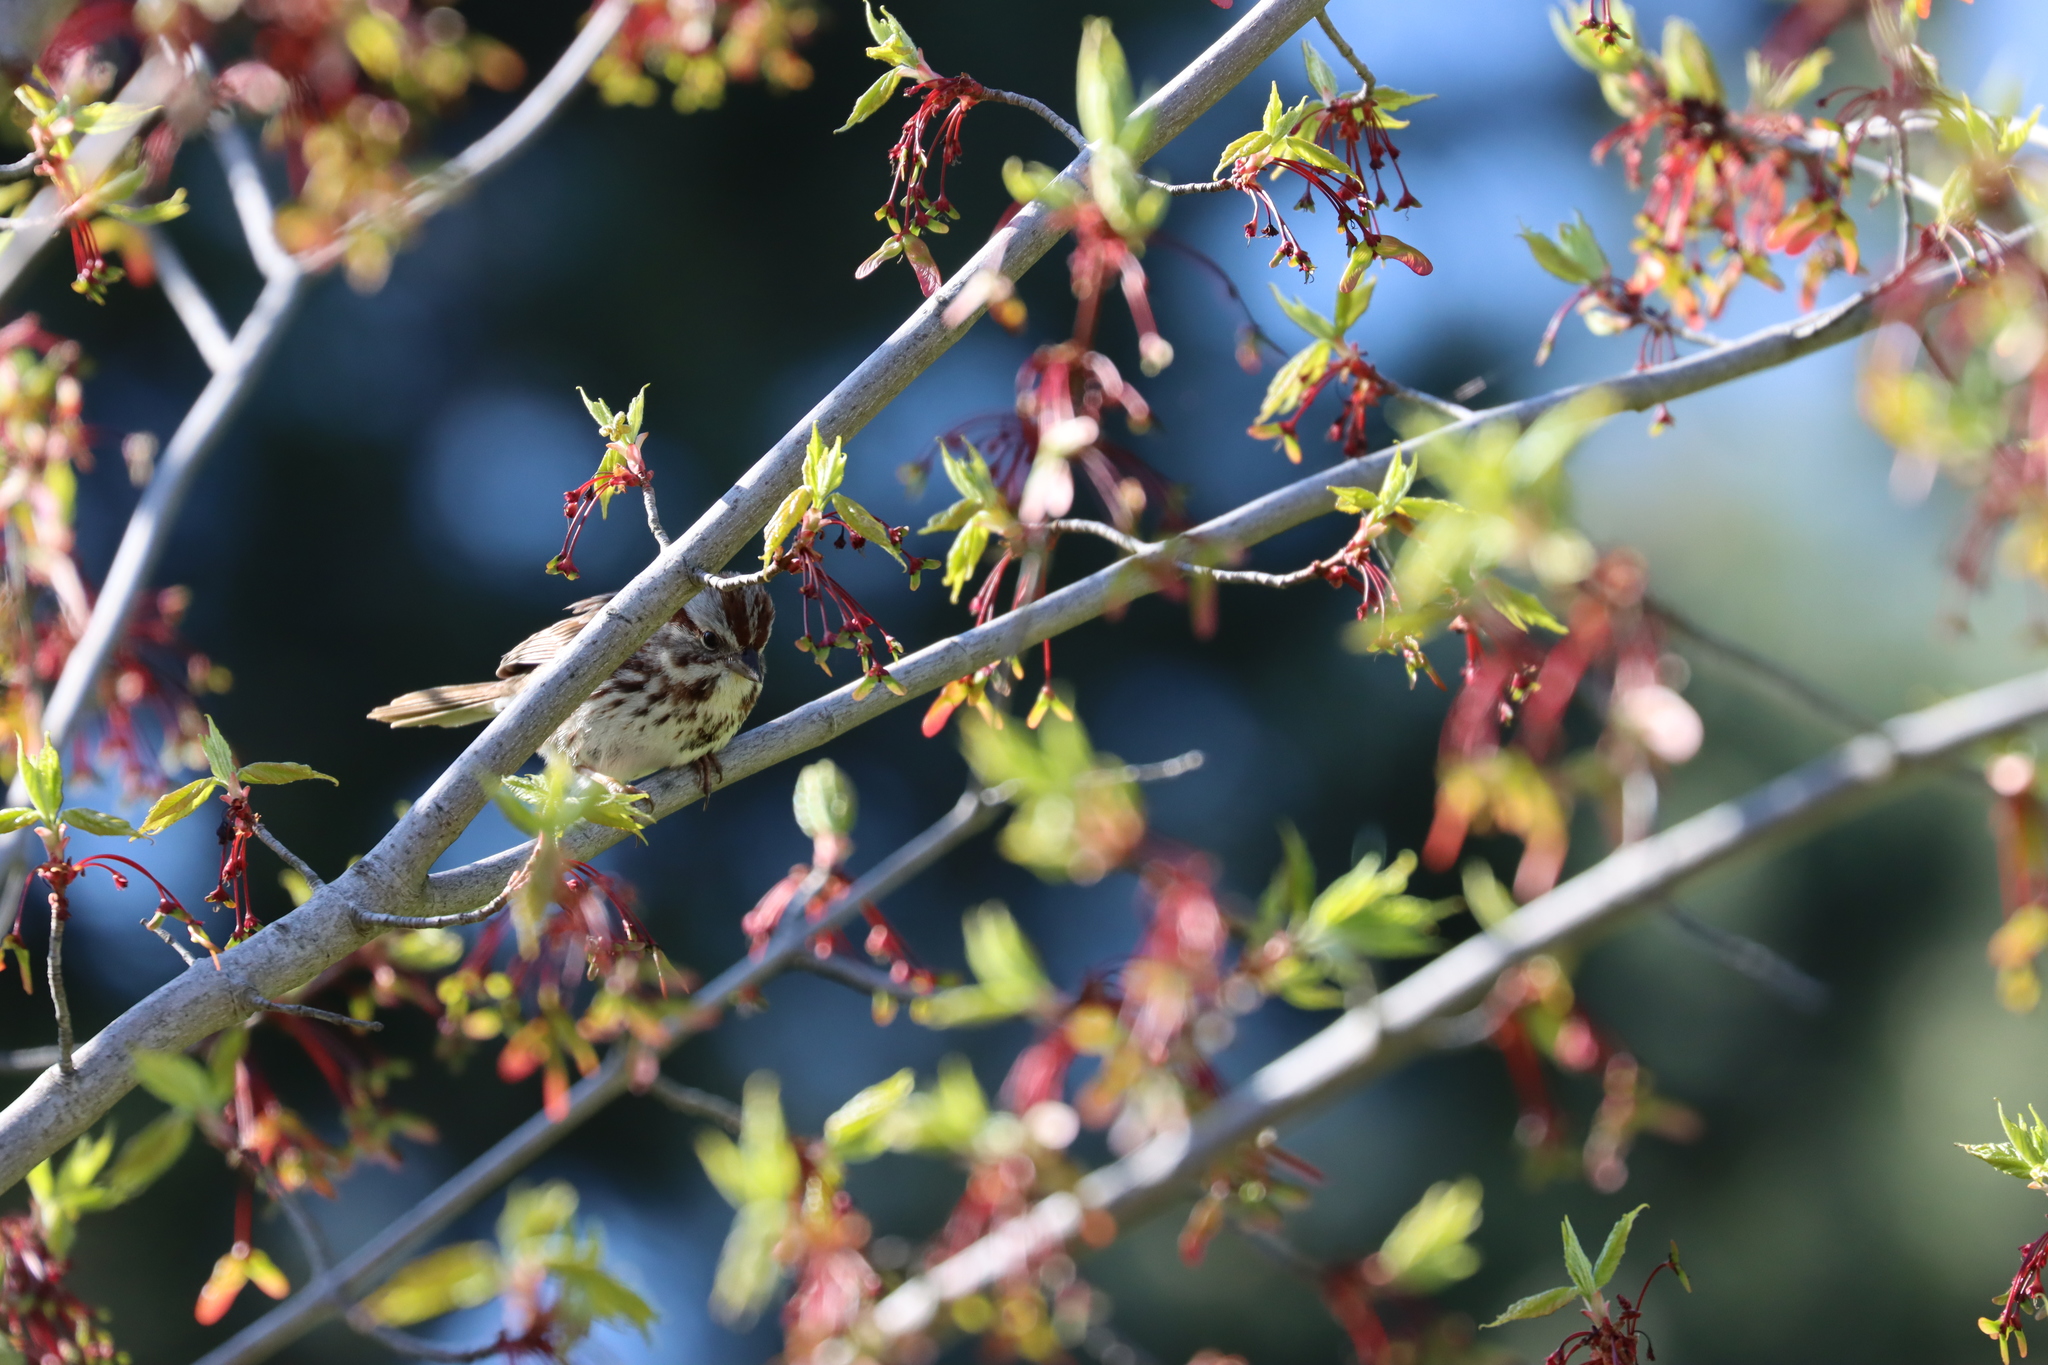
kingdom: Animalia
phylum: Chordata
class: Aves
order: Passeriformes
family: Passerellidae
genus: Melospiza
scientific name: Melospiza melodia
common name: Song sparrow
